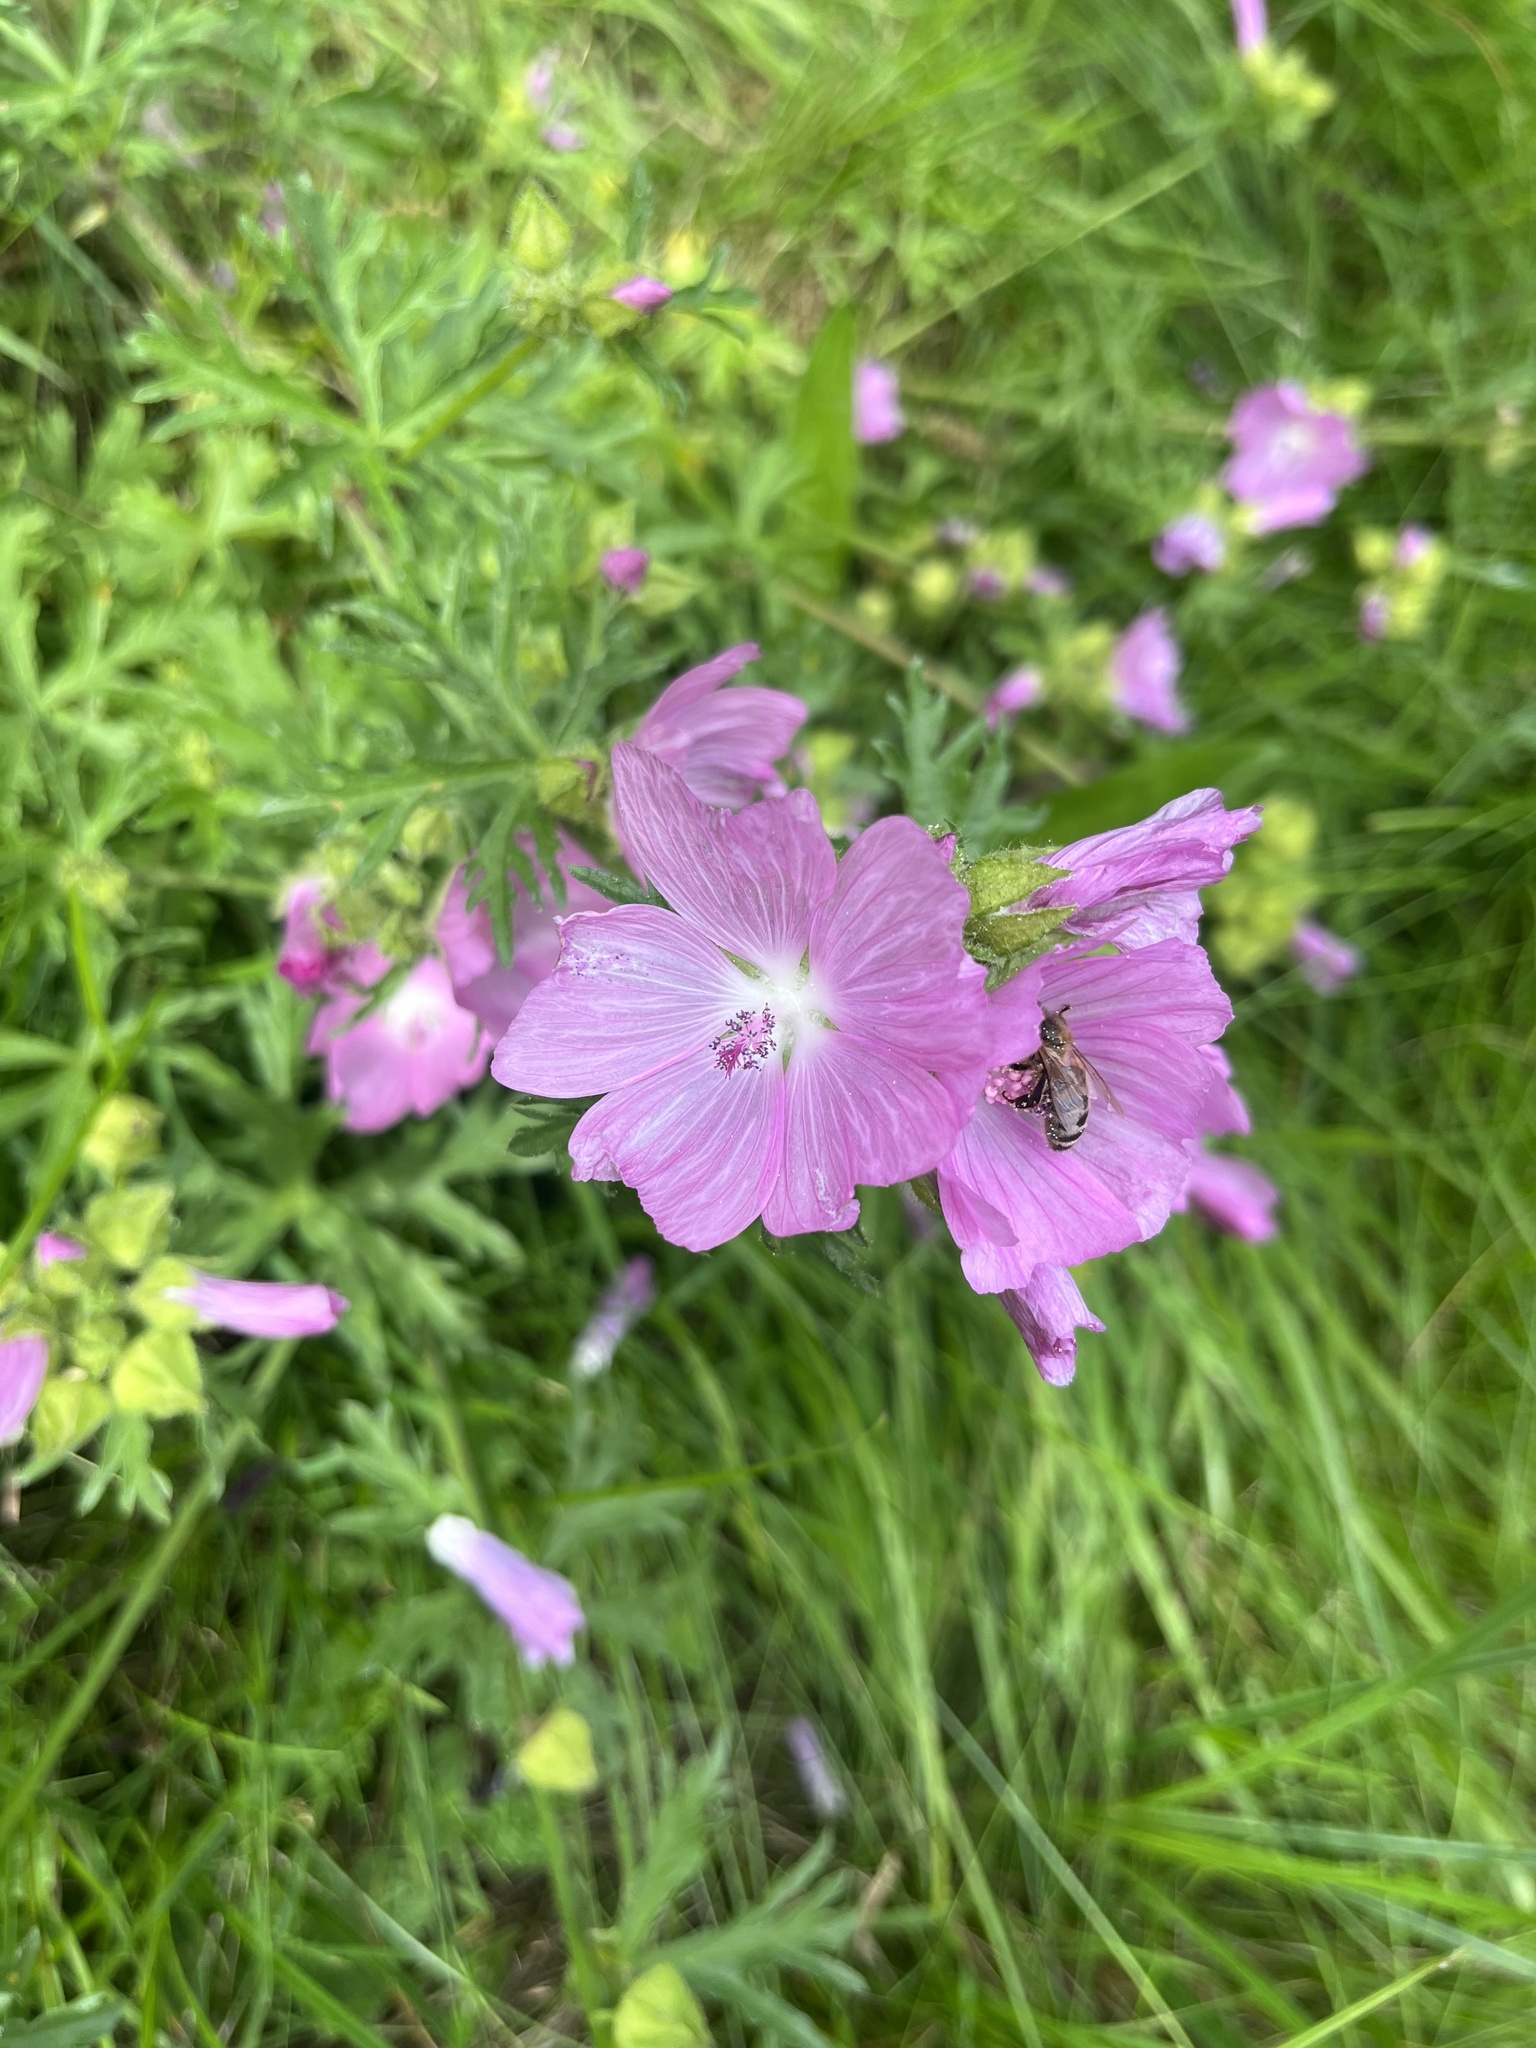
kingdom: Plantae
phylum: Tracheophyta
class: Magnoliopsida
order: Malvales
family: Malvaceae
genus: Malva
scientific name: Malva moschata
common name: Musk mallow
